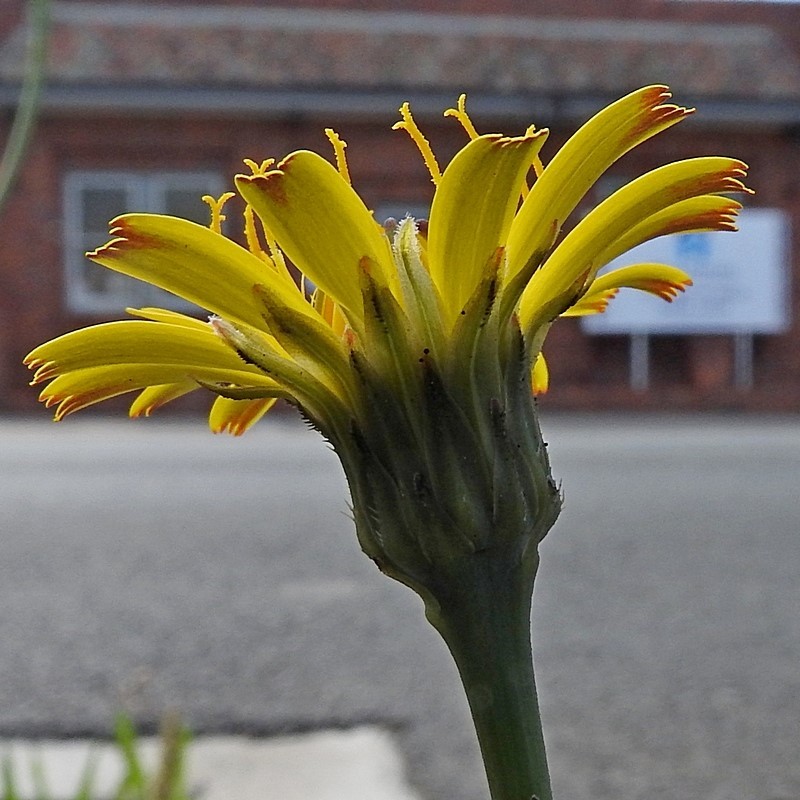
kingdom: Plantae
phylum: Tracheophyta
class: Magnoliopsida
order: Asterales
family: Asteraceae
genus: Hypochaeris
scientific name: Hypochaeris radicata
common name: Flatweed
